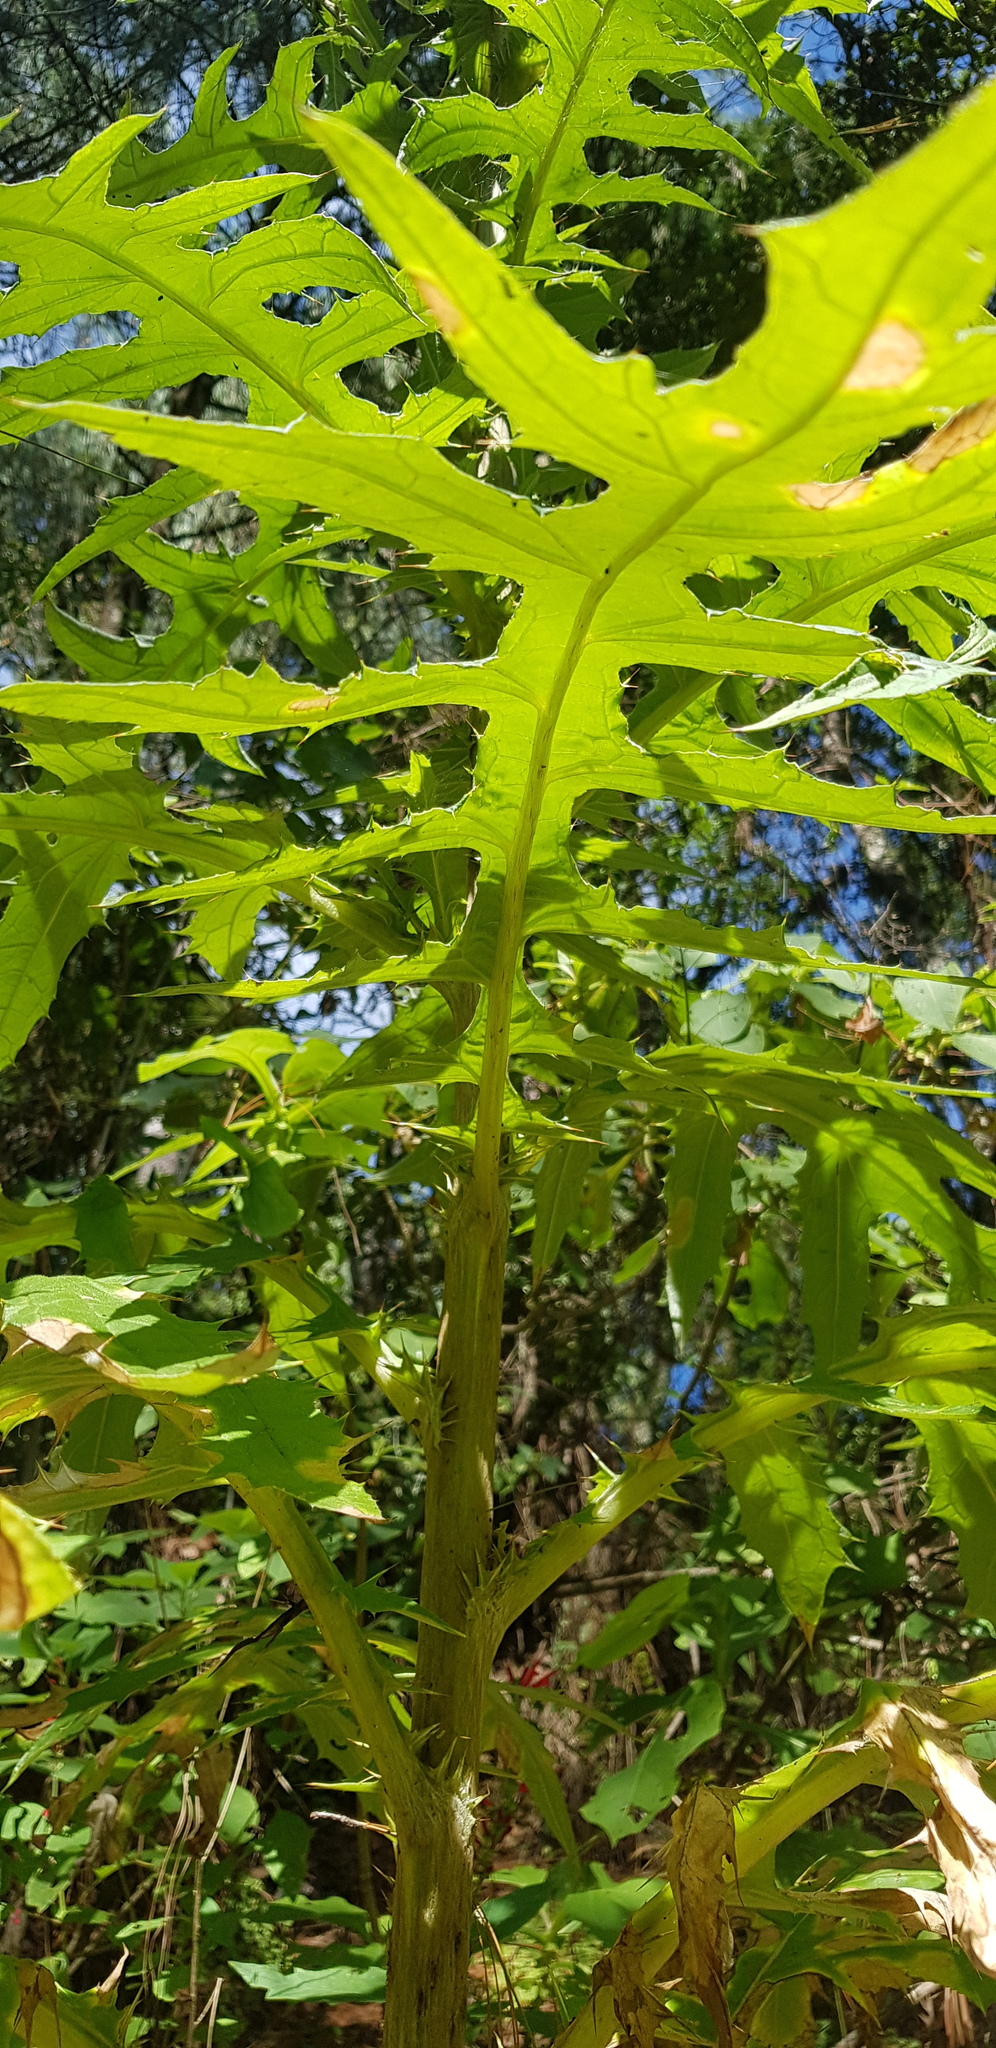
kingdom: Plantae
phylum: Tracheophyta
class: Magnoliopsida
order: Asterales
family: Asteraceae
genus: Cirsium
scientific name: Cirsium subcoriaceum
